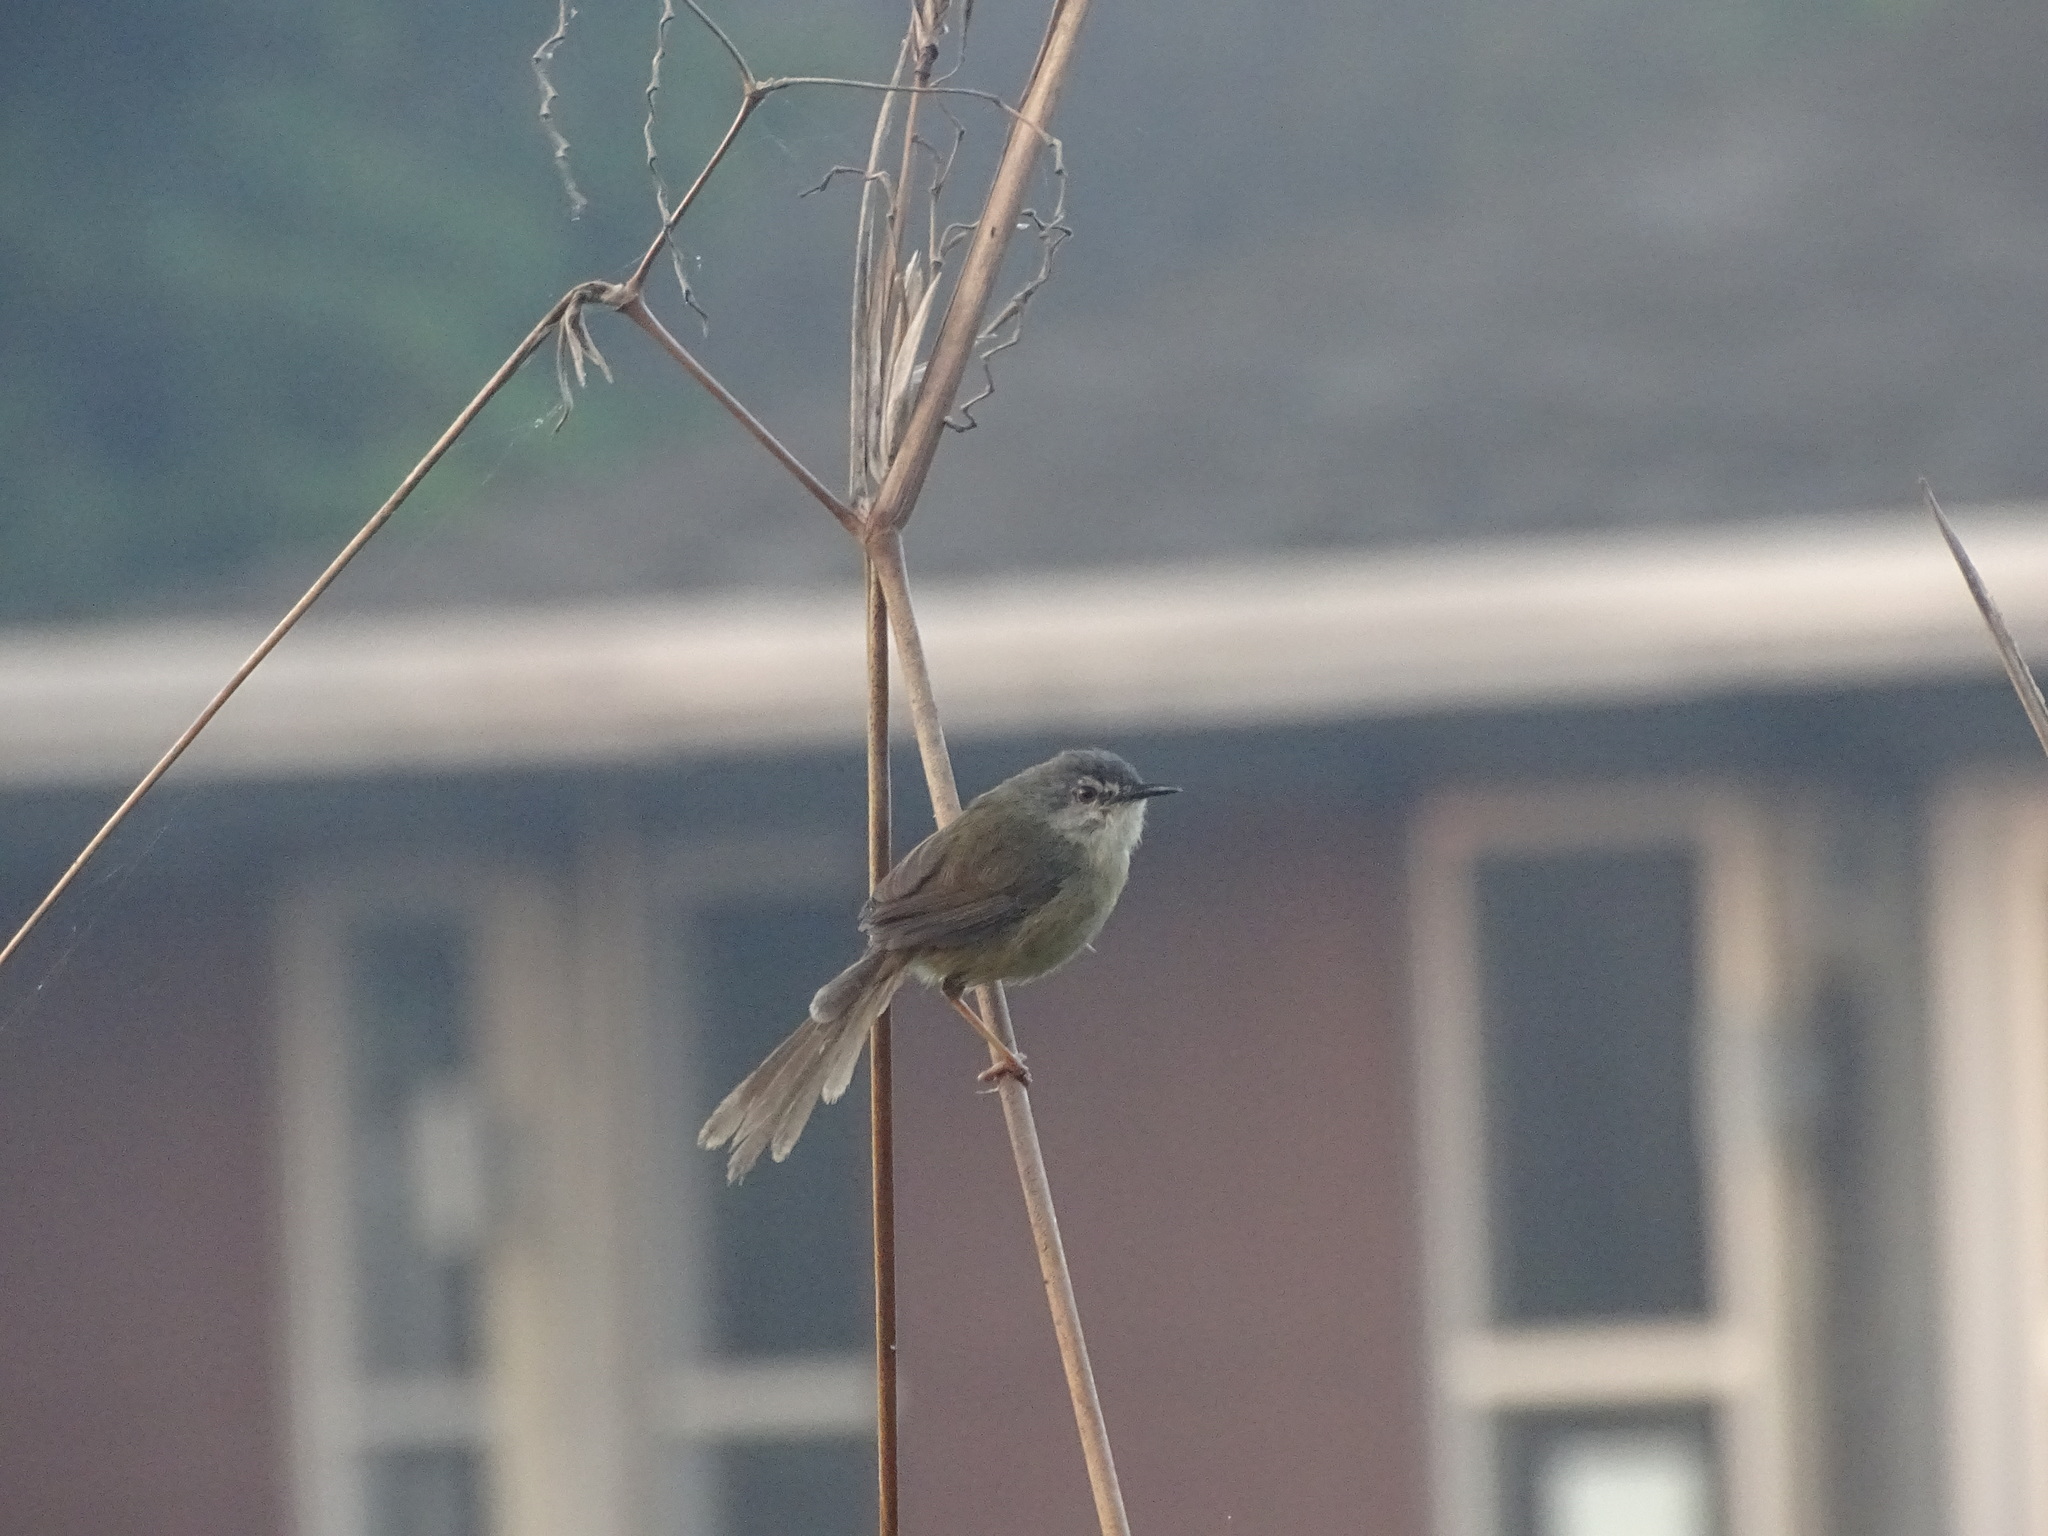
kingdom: Animalia
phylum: Chordata
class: Aves
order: Passeriformes
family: Cisticolidae
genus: Prinia
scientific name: Prinia flaviventris
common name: Yellow-bellied prinia
